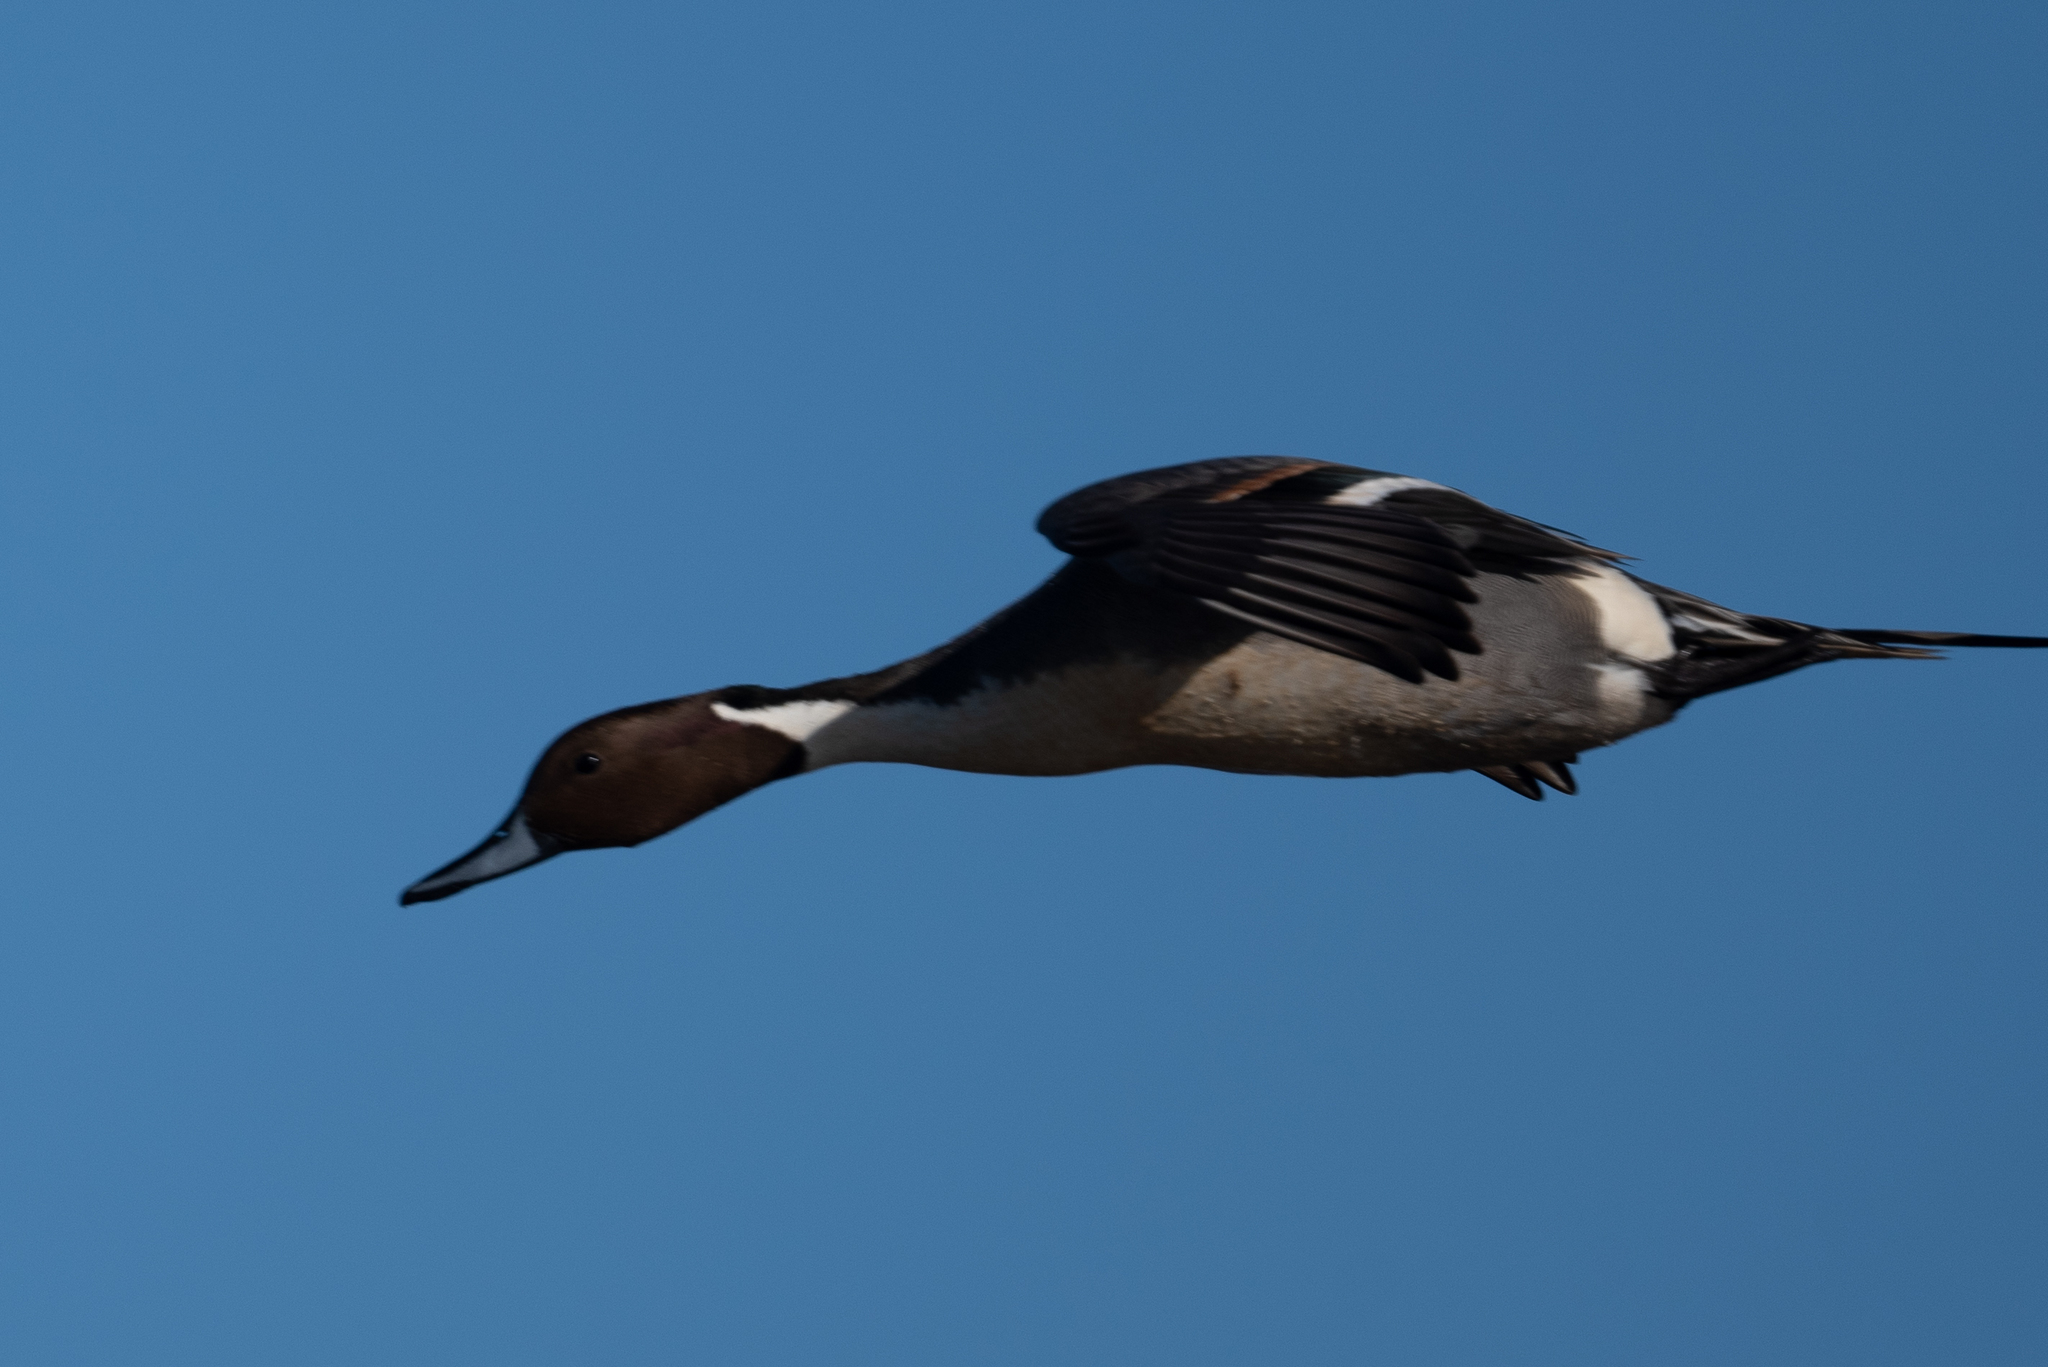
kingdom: Animalia
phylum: Chordata
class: Aves
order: Anseriformes
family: Anatidae
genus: Anas
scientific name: Anas acuta
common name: Northern pintail
